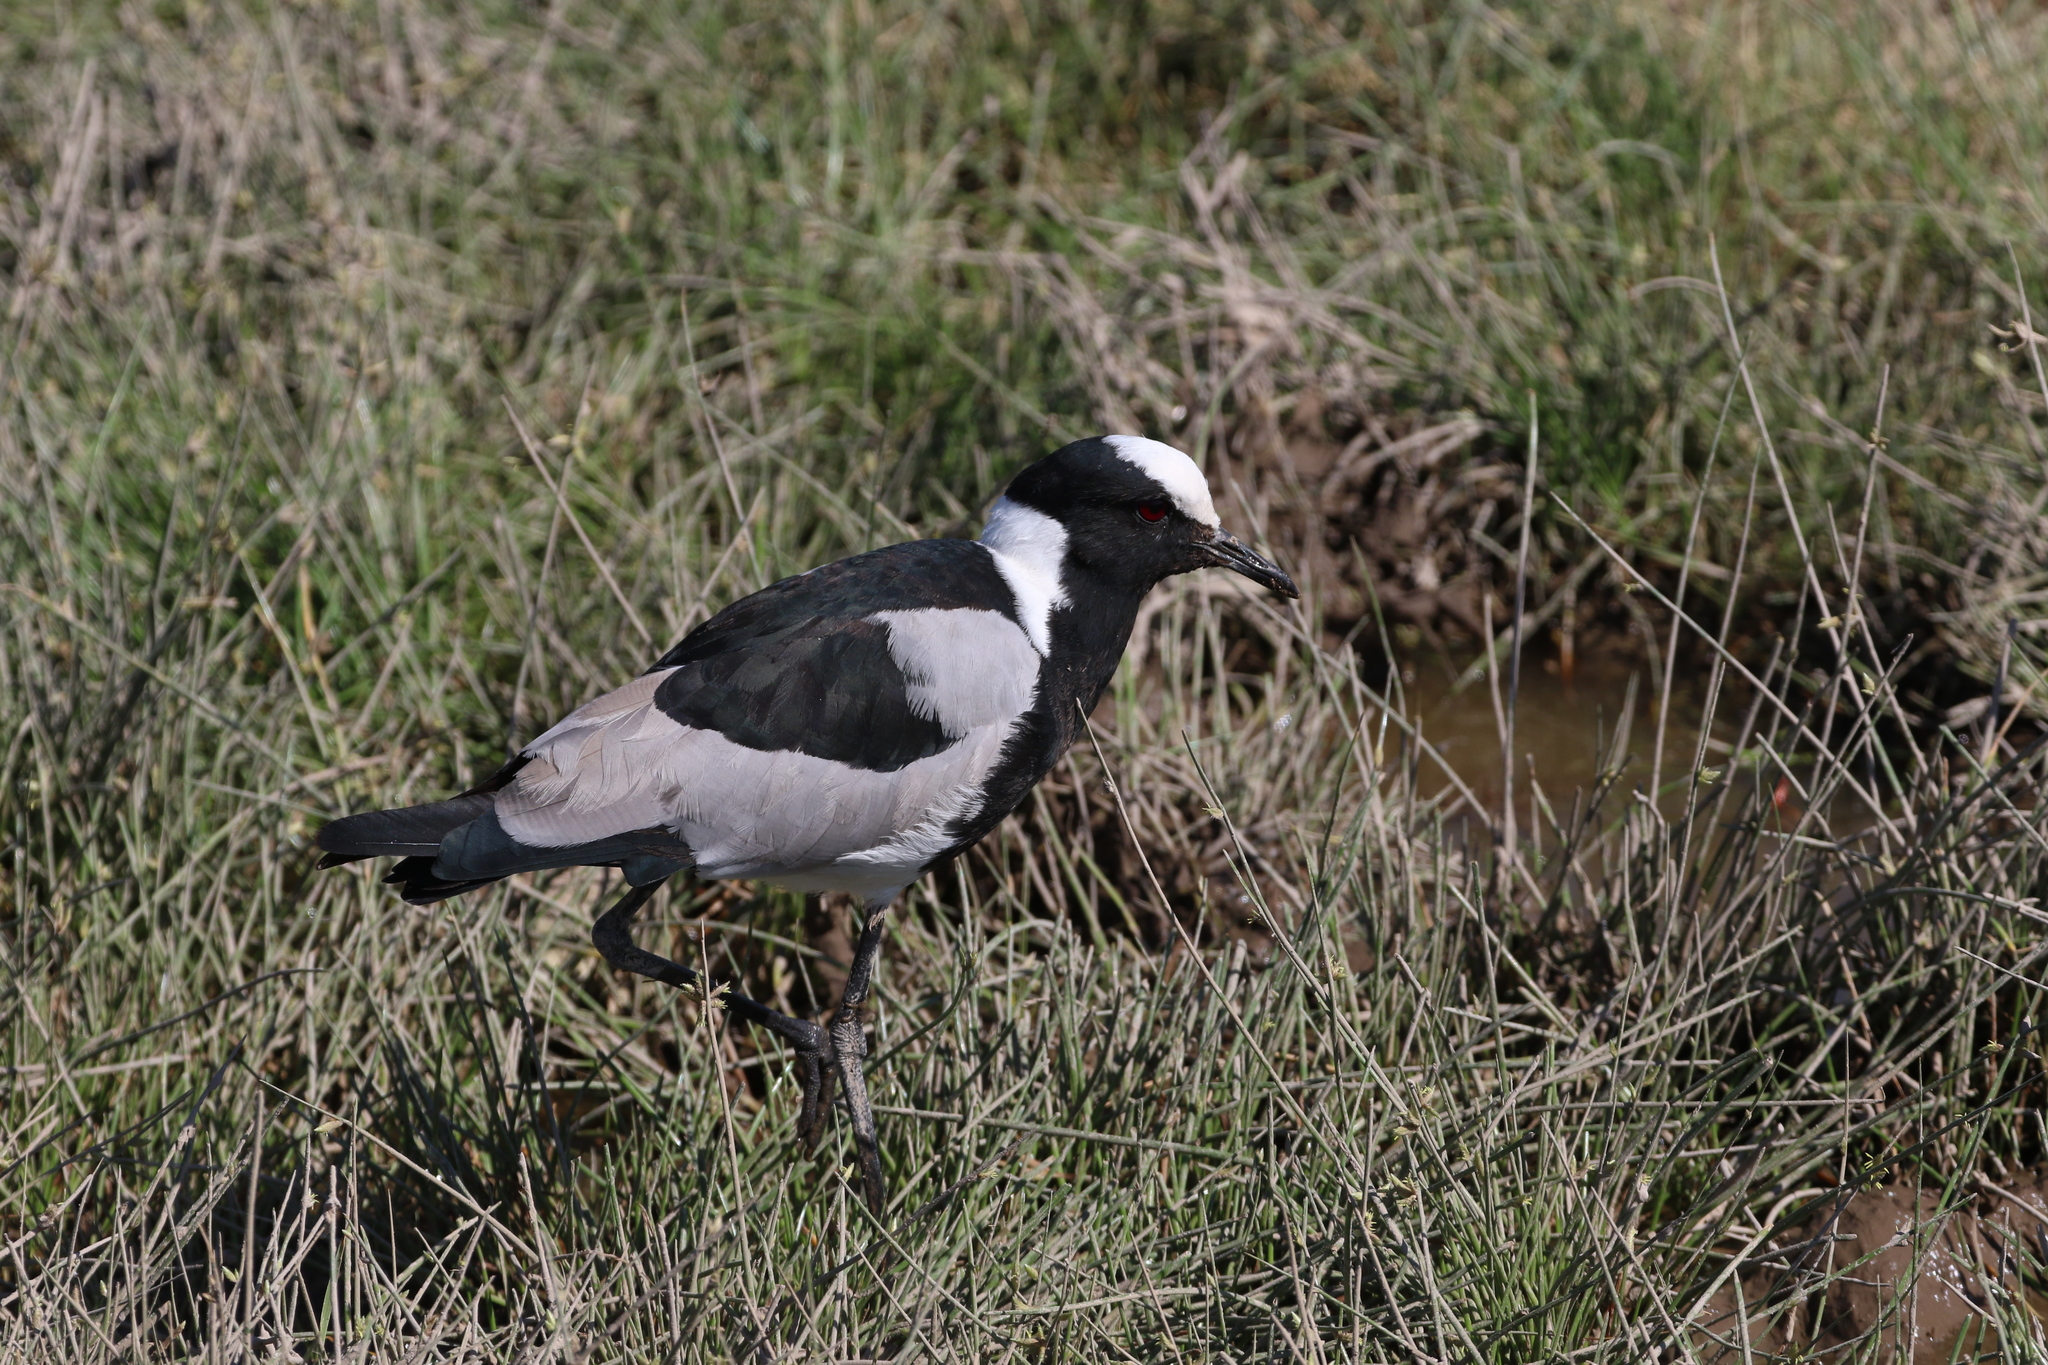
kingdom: Animalia
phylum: Chordata
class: Aves
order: Charadriiformes
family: Charadriidae
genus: Vanellus
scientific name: Vanellus armatus
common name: Blacksmith lapwing
